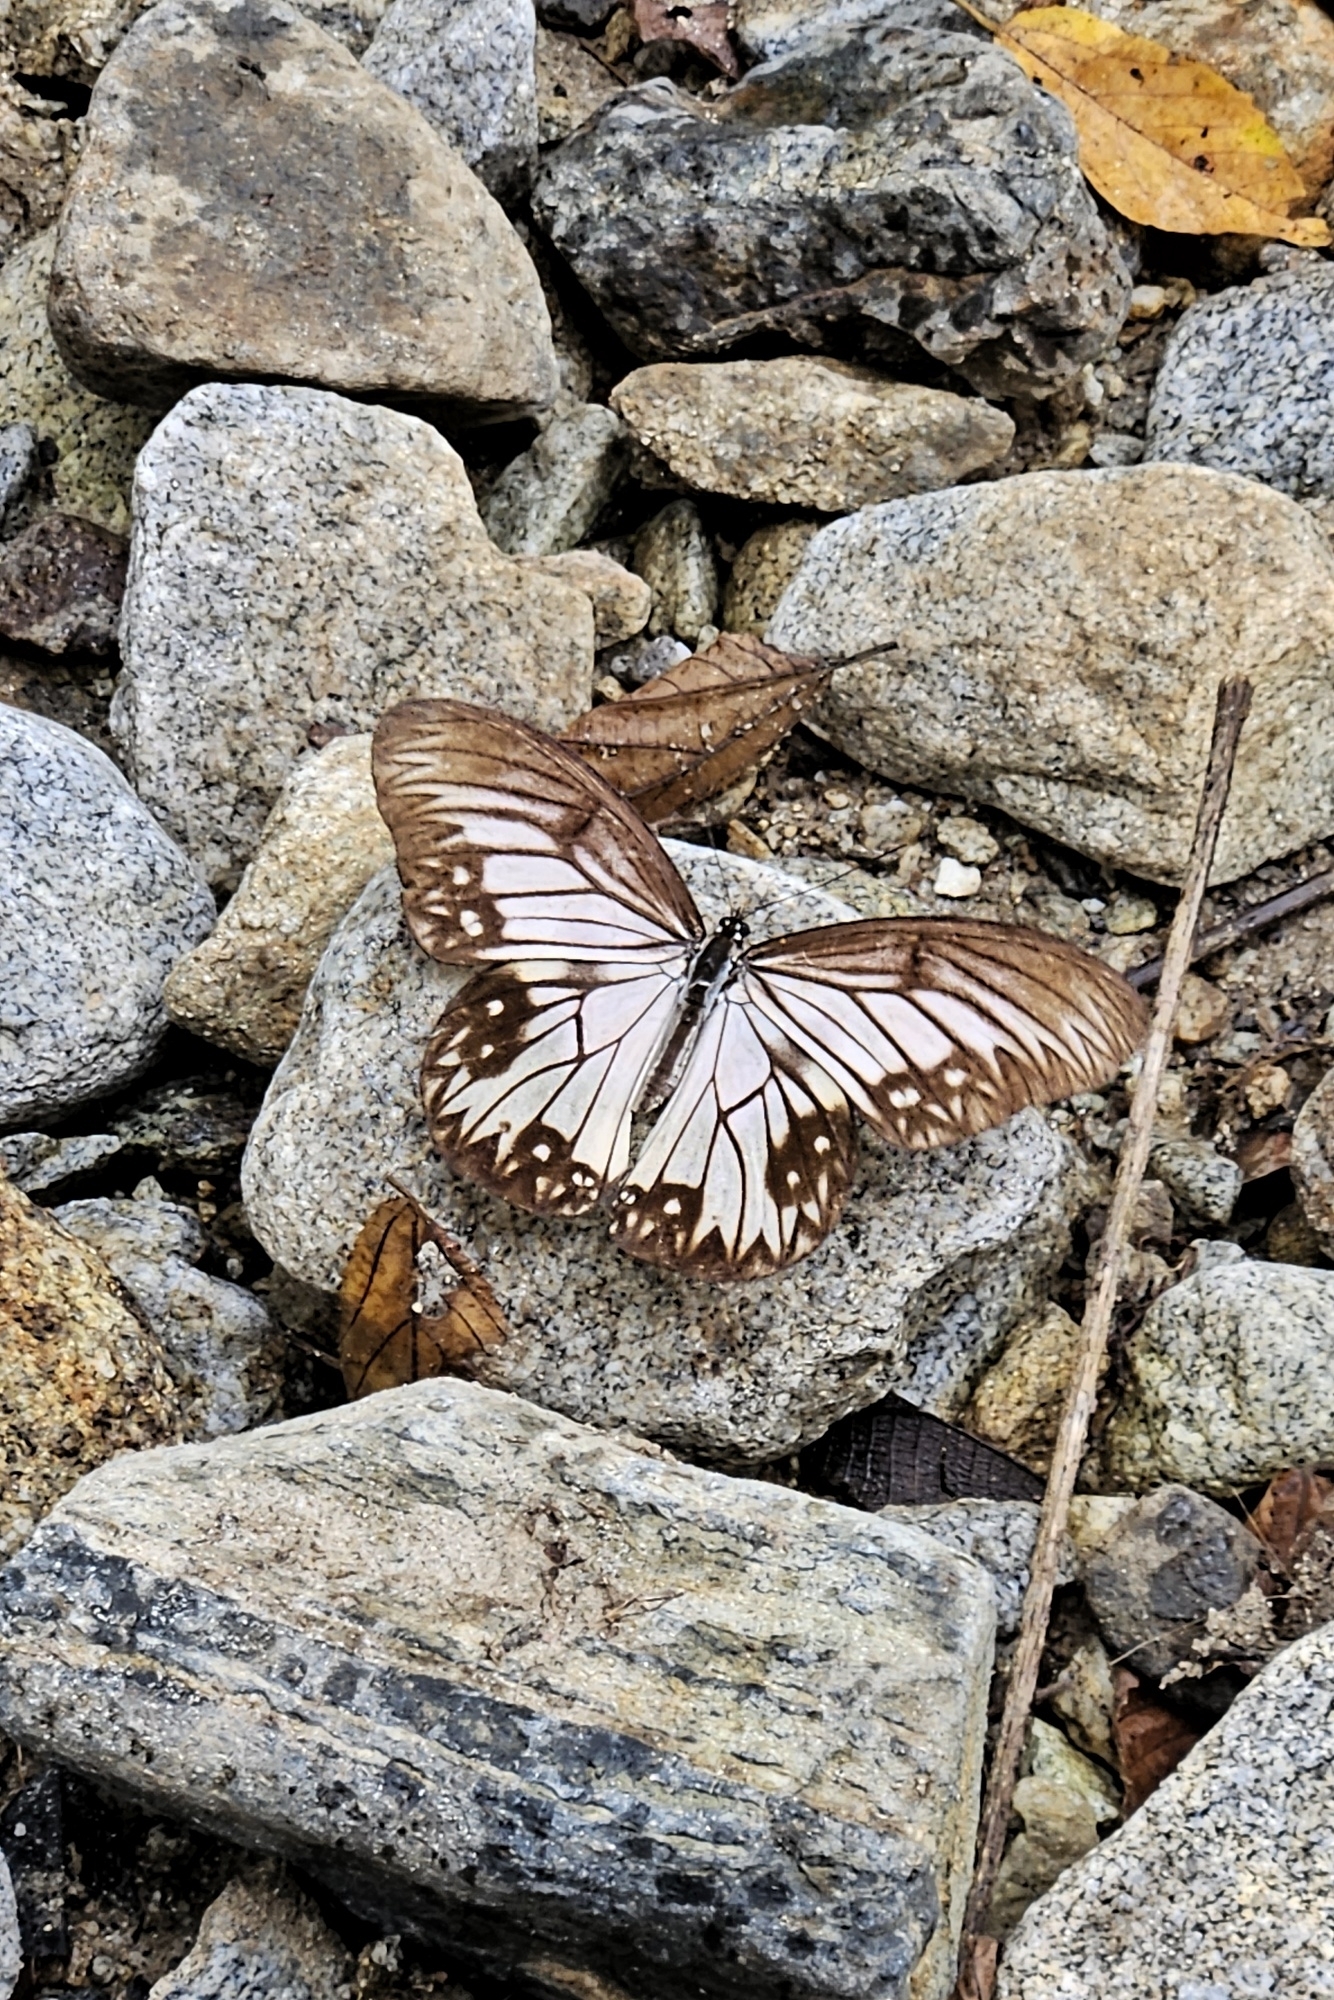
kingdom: Animalia
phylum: Arthropoda
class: Insecta
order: Lepidoptera
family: Nymphalidae
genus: Zethera
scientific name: Zethera incerta
